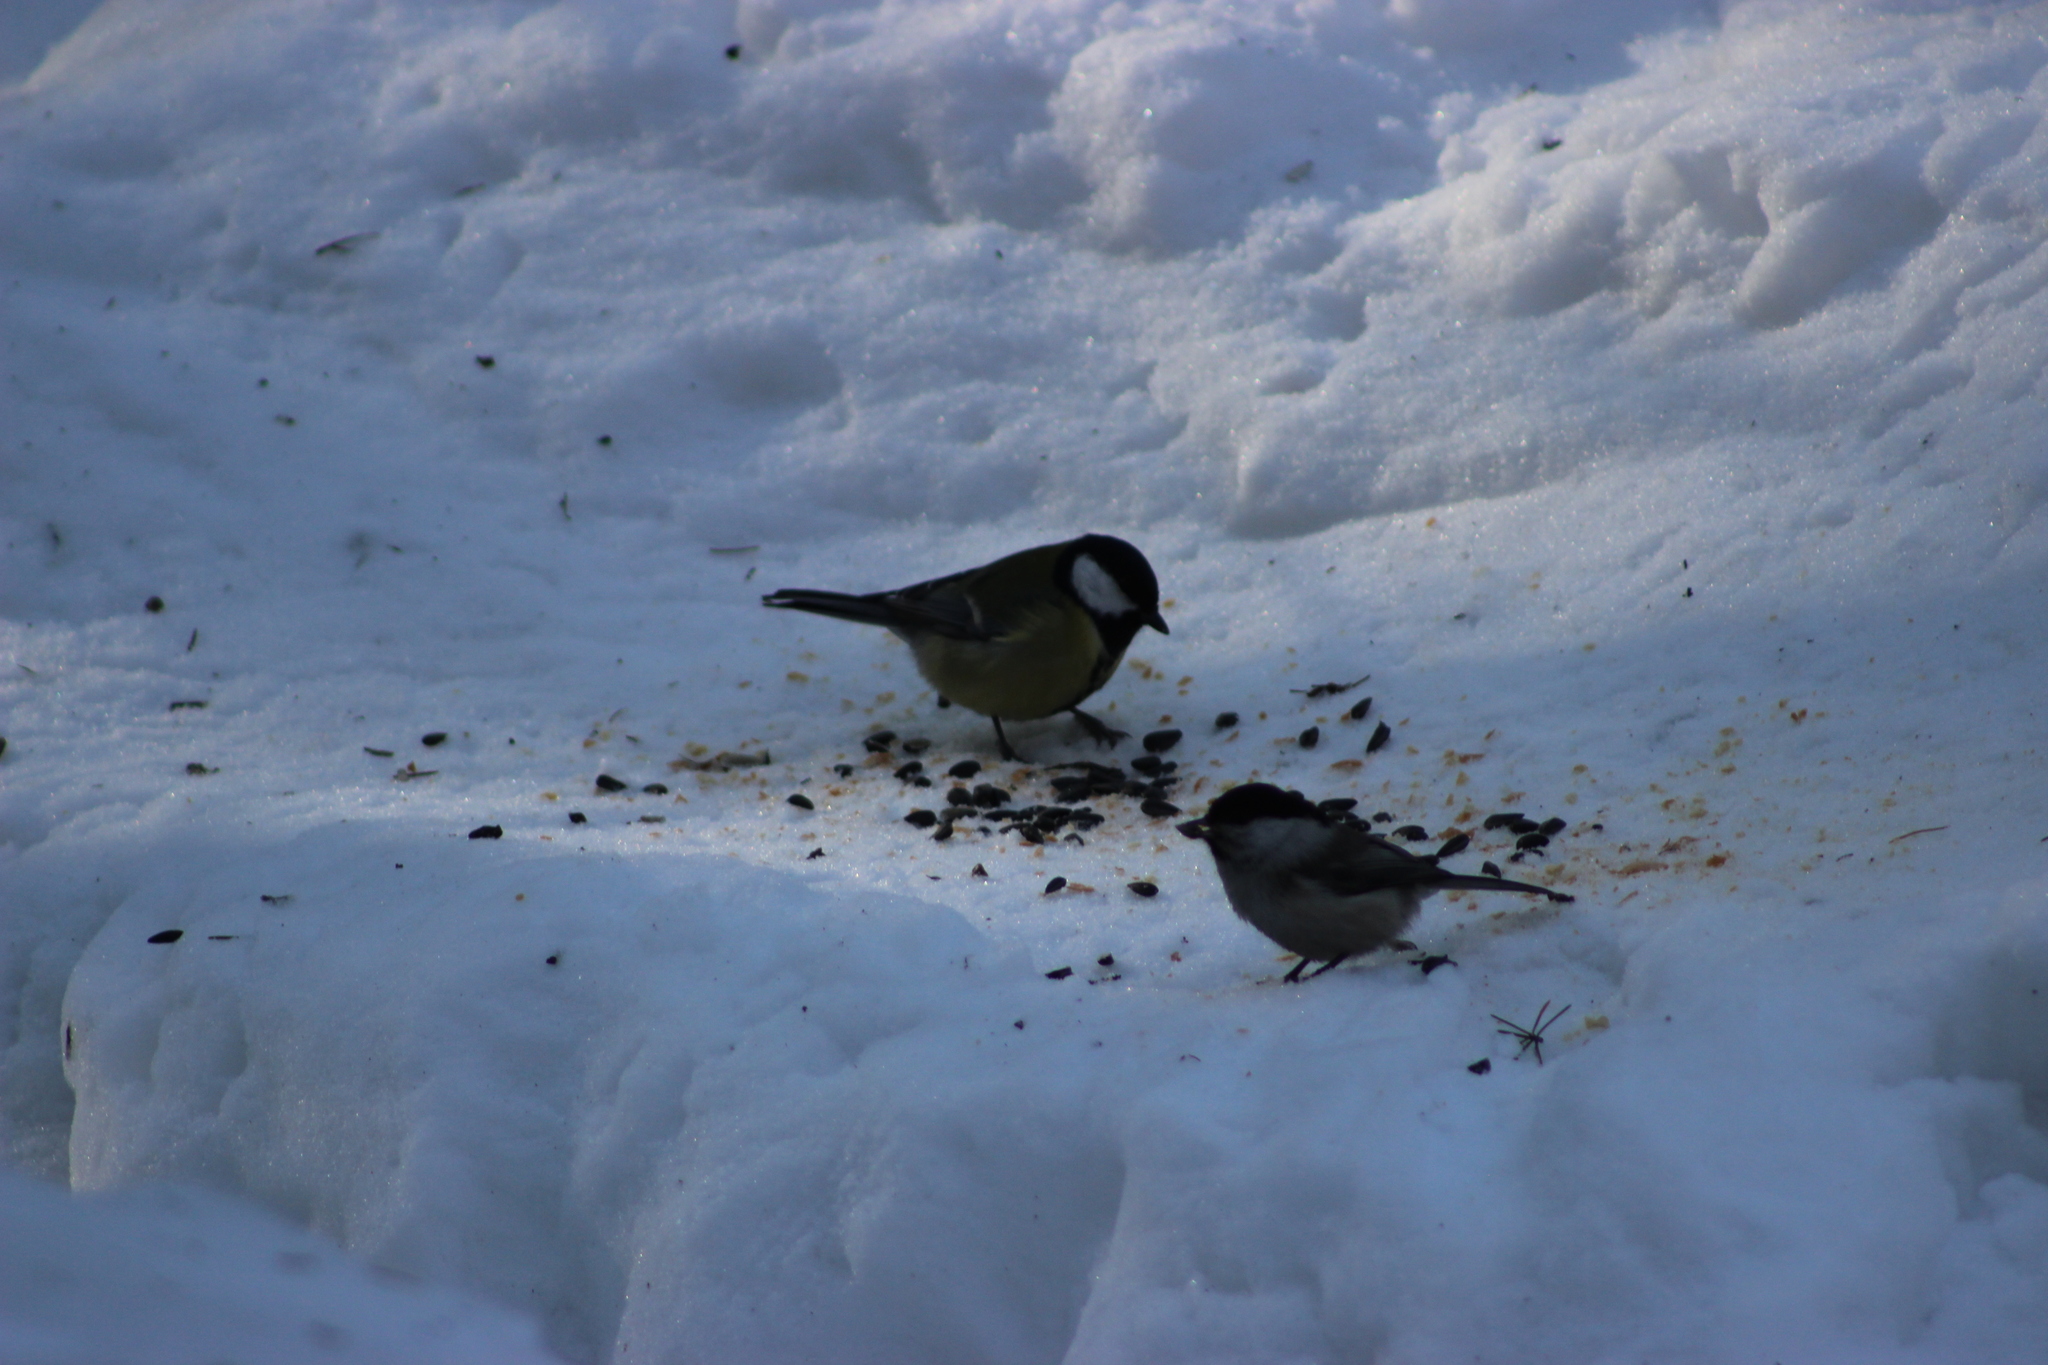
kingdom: Animalia
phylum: Chordata
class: Aves
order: Passeriformes
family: Paridae
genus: Parus
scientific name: Parus major
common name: Great tit
